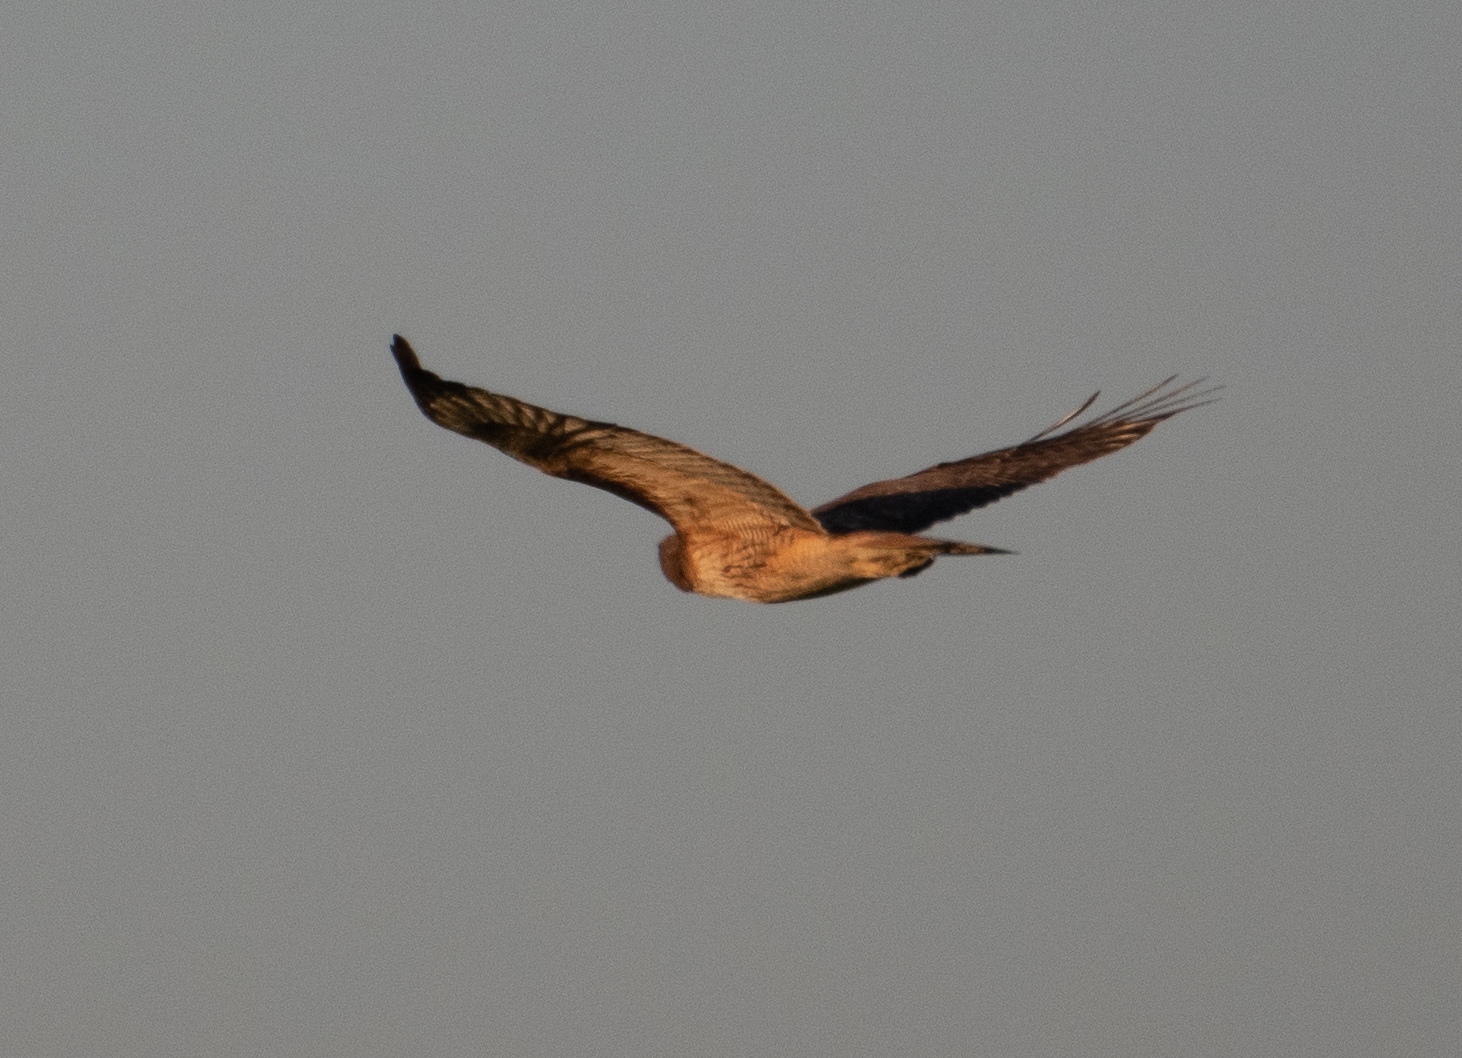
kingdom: Animalia
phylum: Chordata
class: Aves
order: Accipitriformes
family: Accipitridae
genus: Buteo
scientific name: Buteo jamaicensis
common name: Red-tailed hawk
